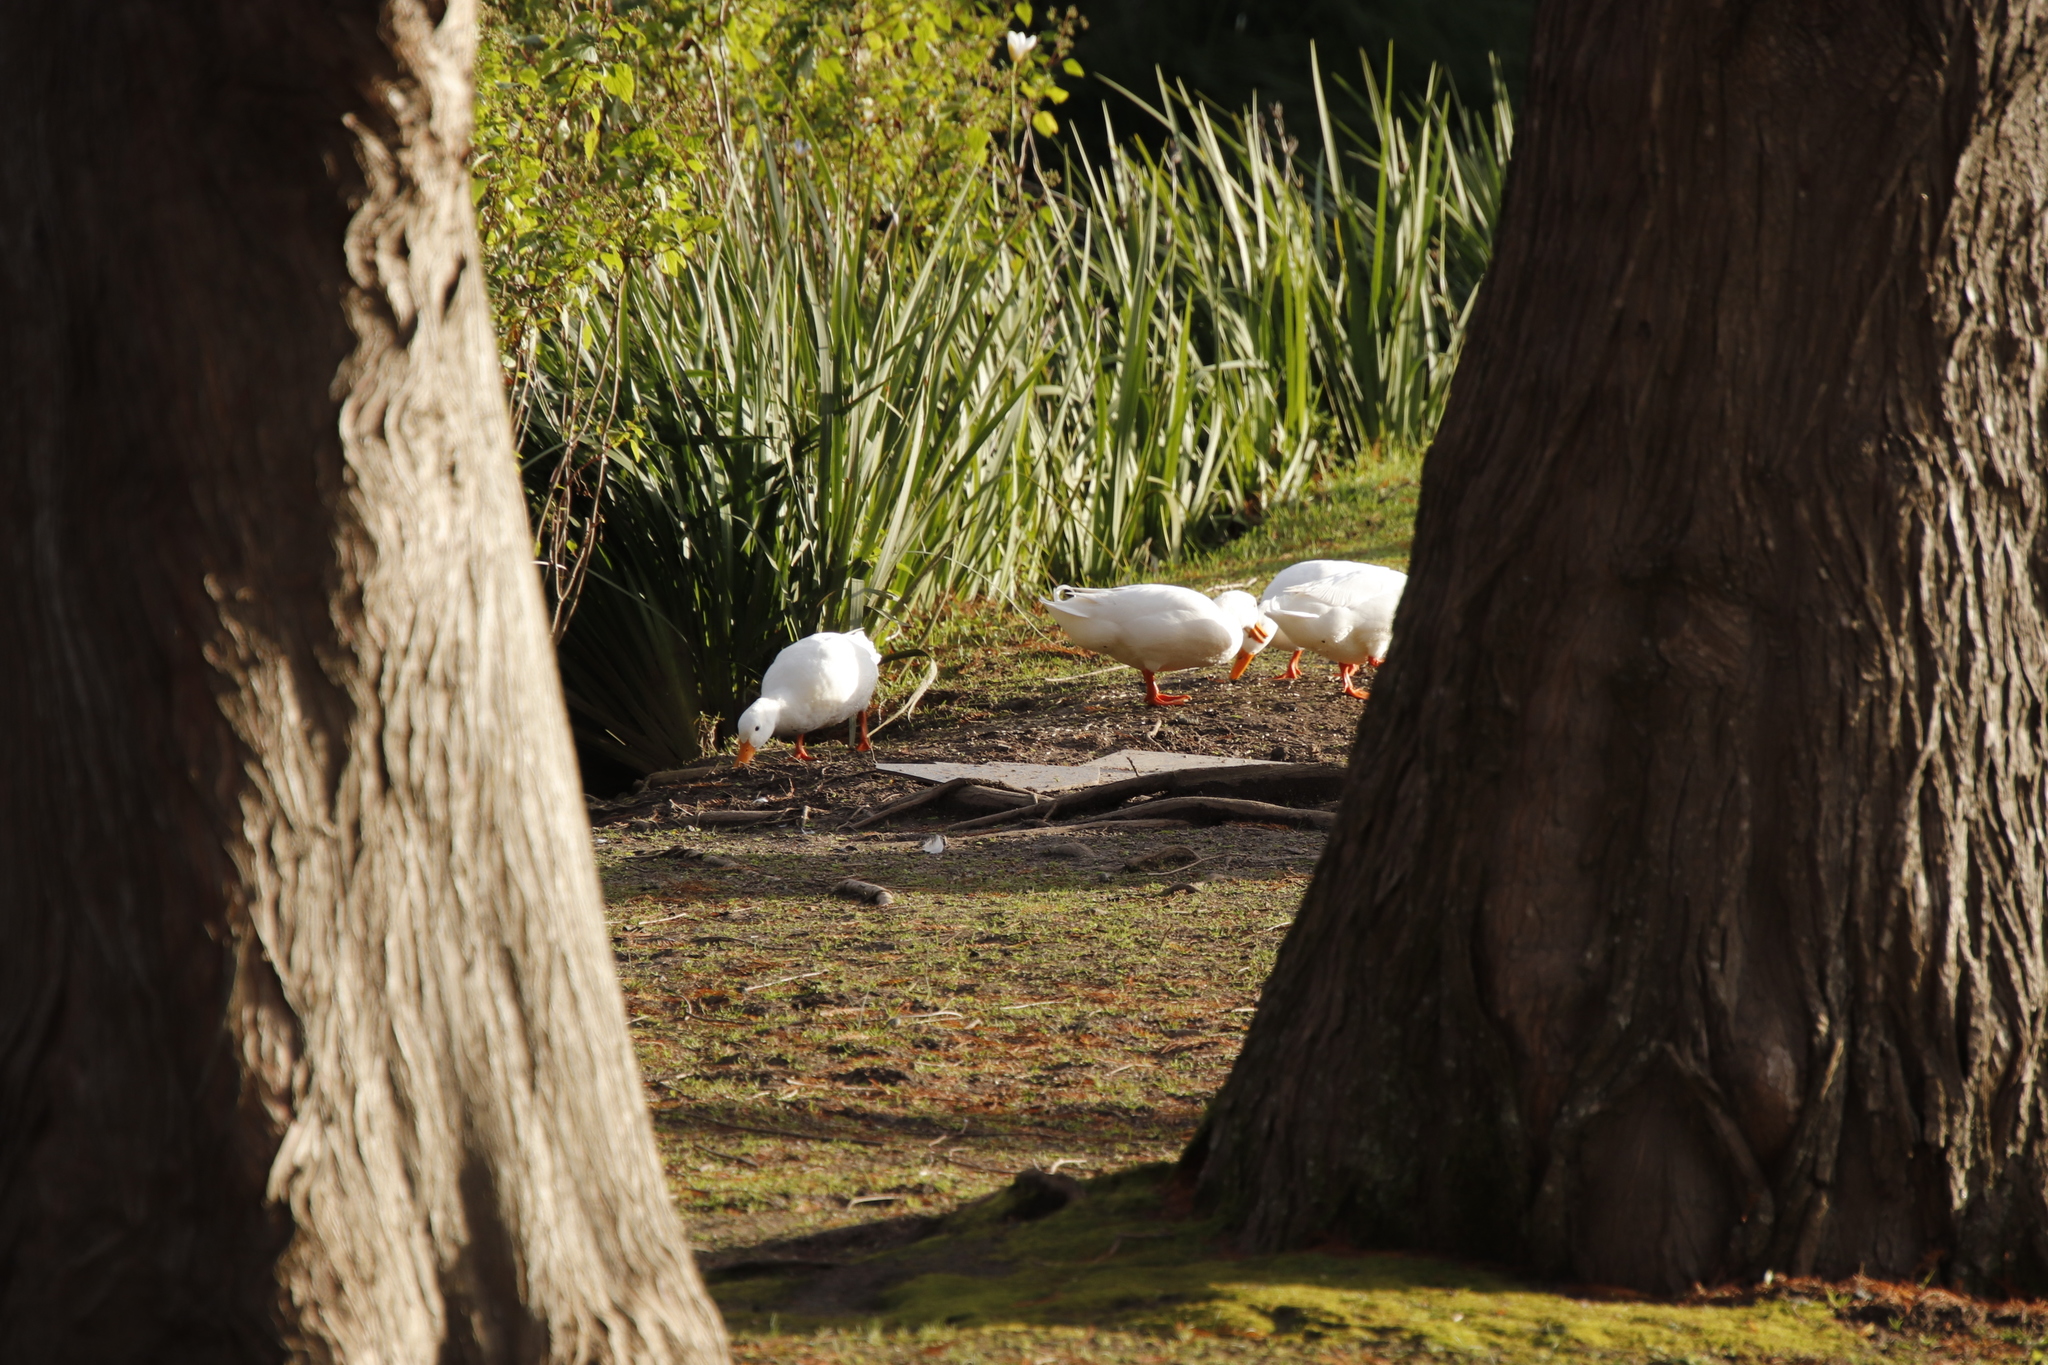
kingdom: Animalia
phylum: Chordata
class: Aves
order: Anseriformes
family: Anatidae
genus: Anas
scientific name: Anas platyrhynchos
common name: Mallard
